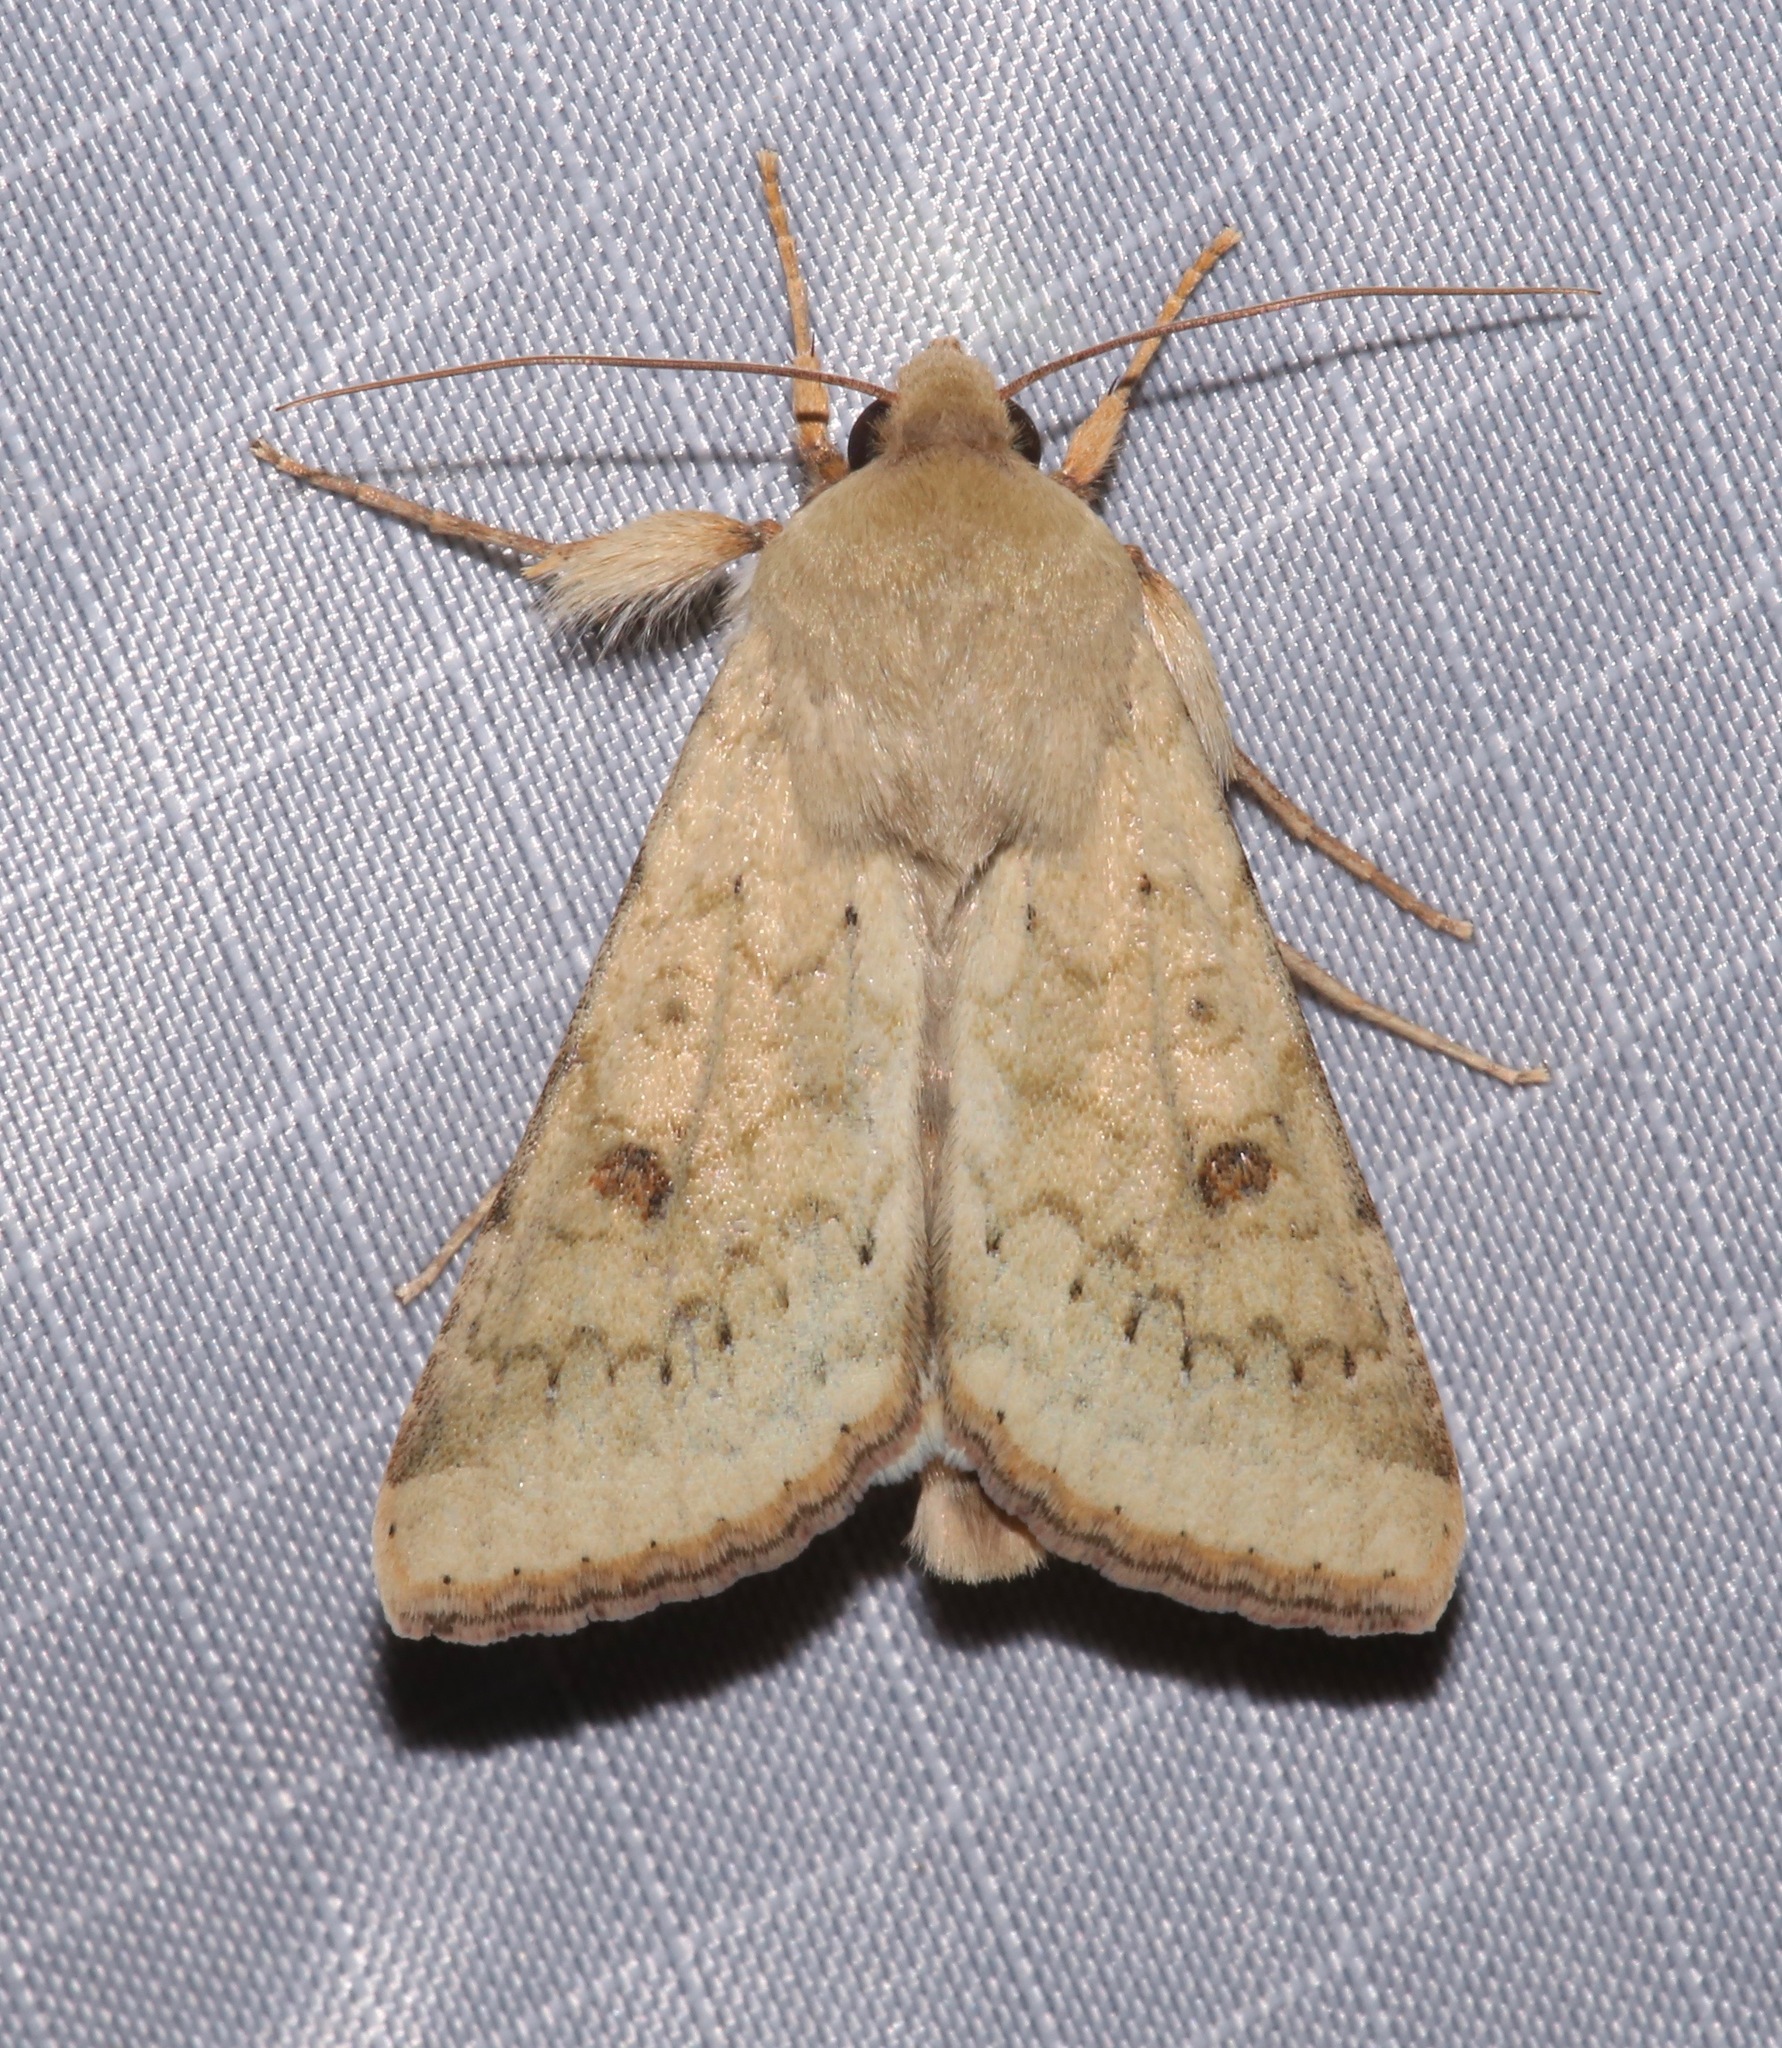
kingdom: Animalia
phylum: Arthropoda
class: Insecta
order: Lepidoptera
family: Noctuidae
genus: Helicoverpa
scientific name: Helicoverpa zea
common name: Bollworm
